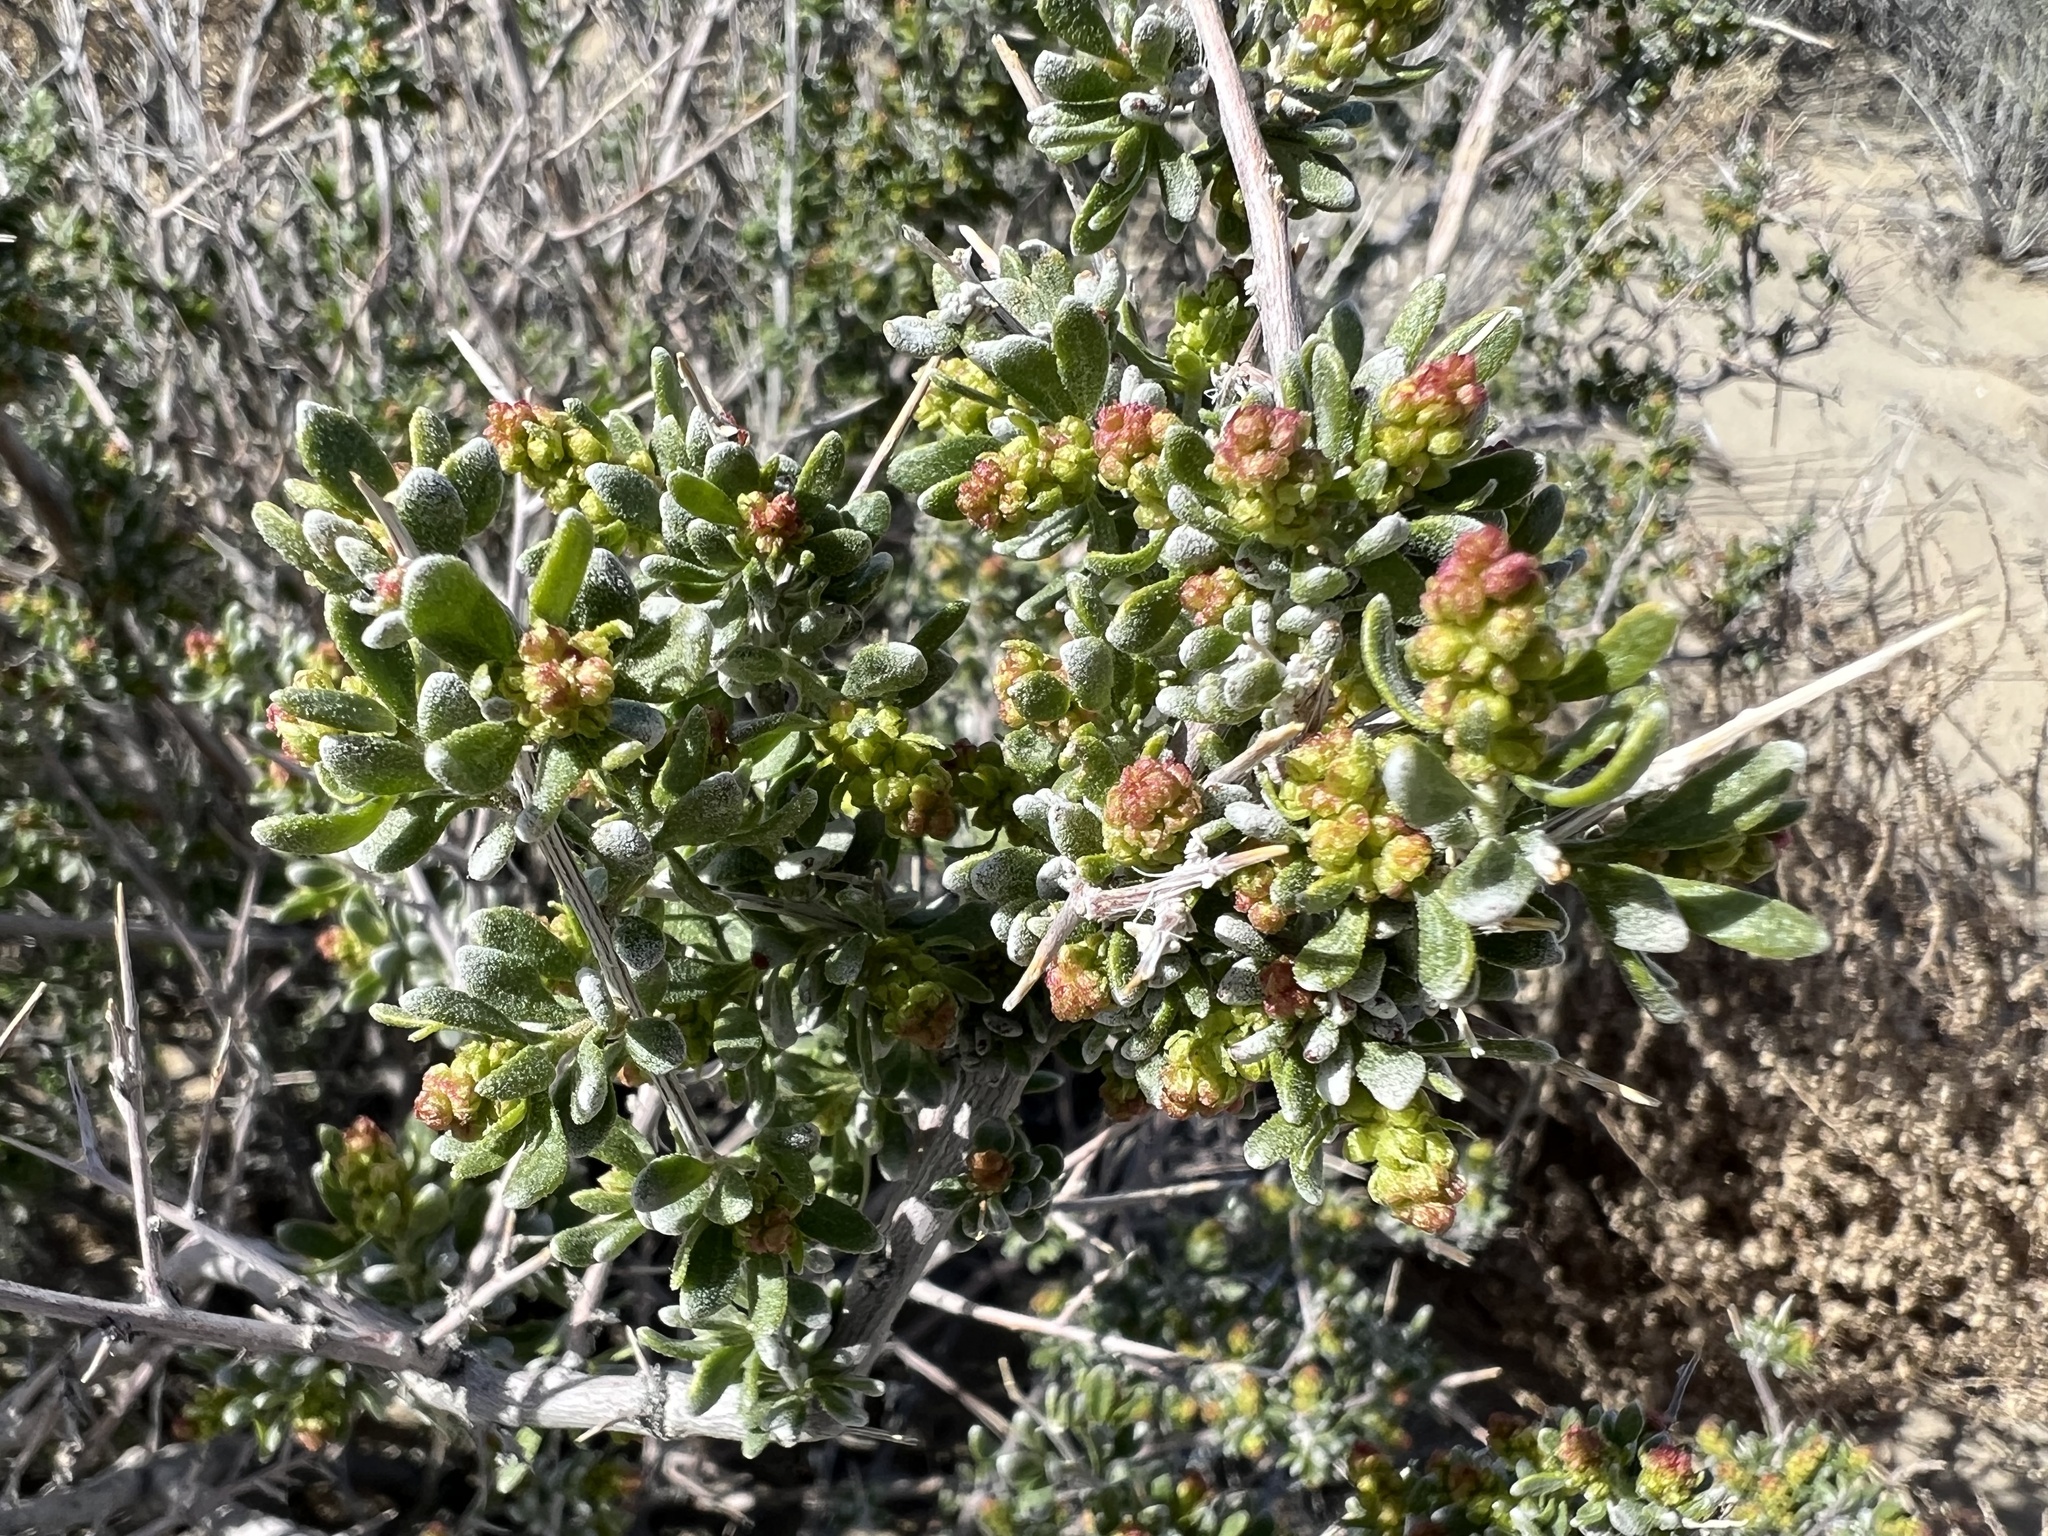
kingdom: Plantae
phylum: Tracheophyta
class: Magnoliopsida
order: Caryophyllales
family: Amaranthaceae
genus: Grayia
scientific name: Grayia spinosa
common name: Spiny hopsage
